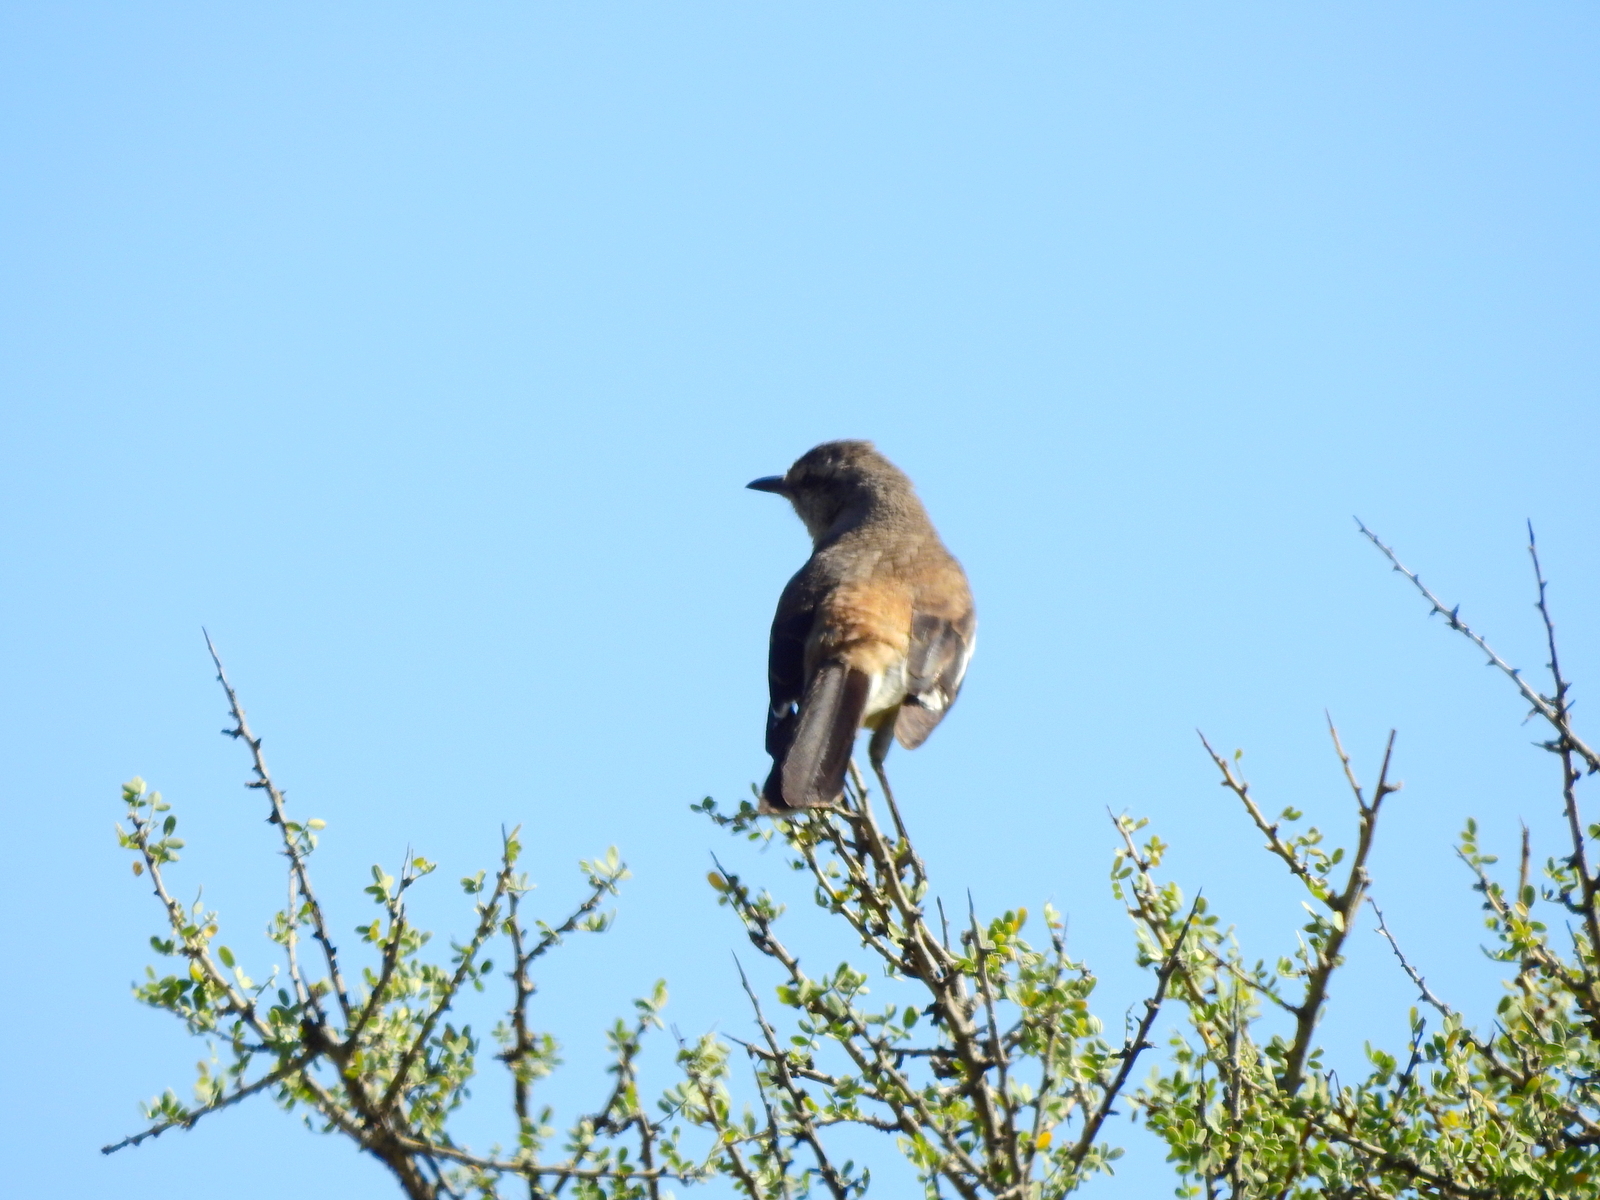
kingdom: Animalia
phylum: Chordata
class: Aves
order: Passeriformes
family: Mimidae
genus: Mimus
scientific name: Mimus triurus
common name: White-banded mockingbird
